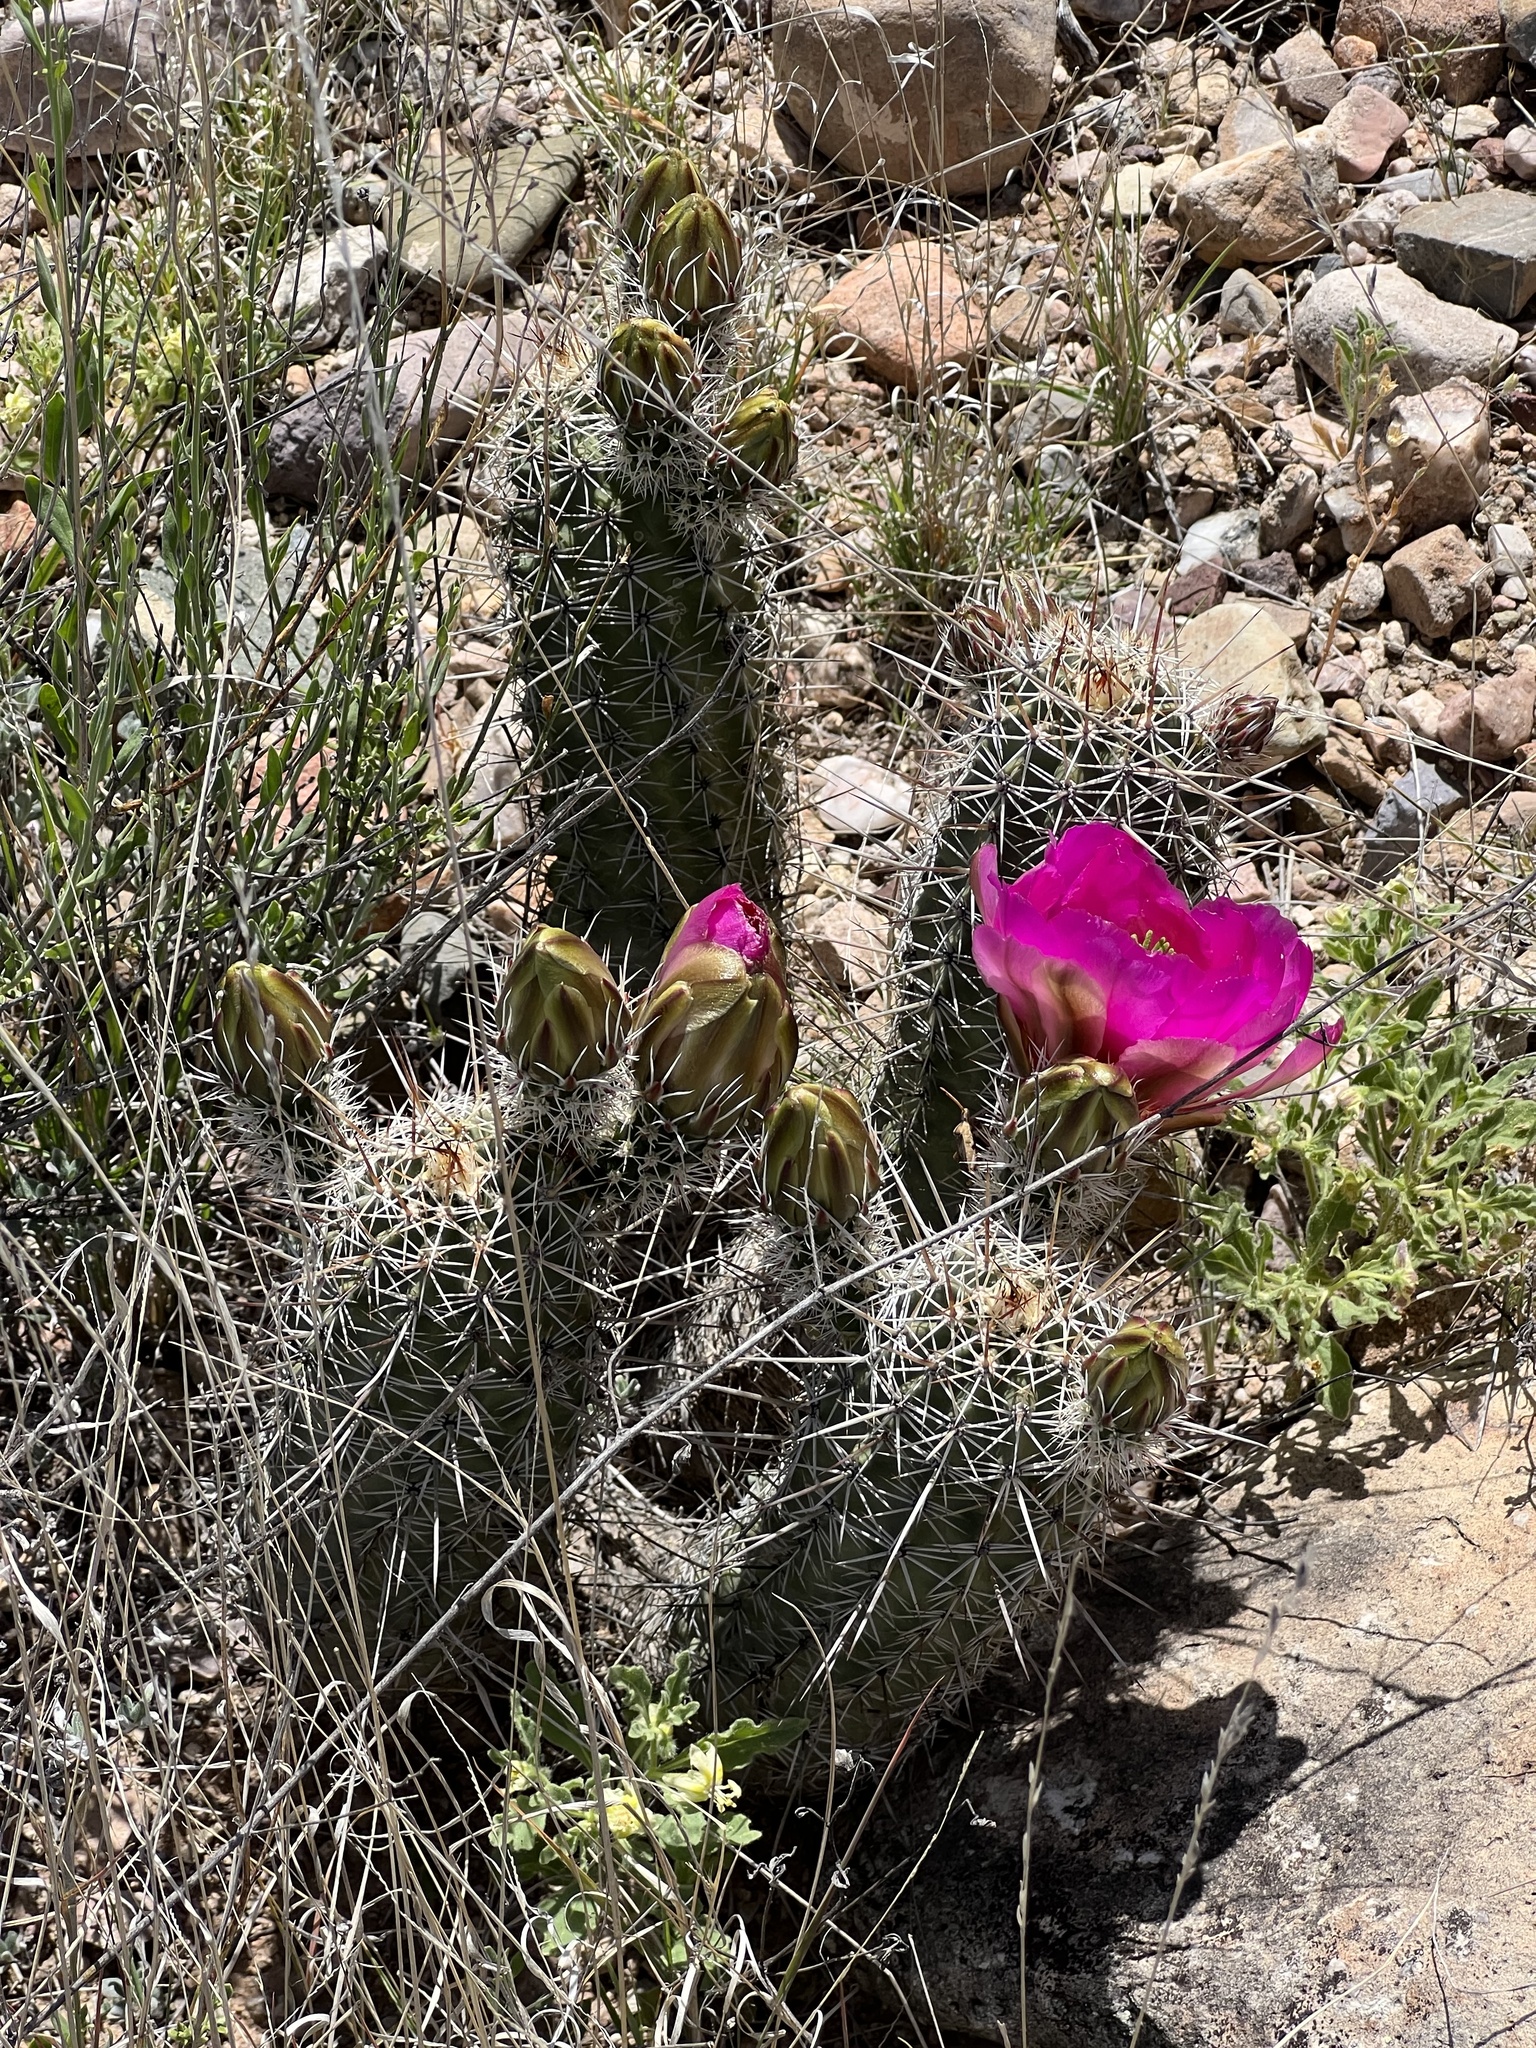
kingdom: Plantae
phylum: Tracheophyta
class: Magnoliopsida
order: Caryophyllales
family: Cactaceae
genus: Echinocereus
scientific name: Echinocereus fasciculatus
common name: Bundle hedgehog
